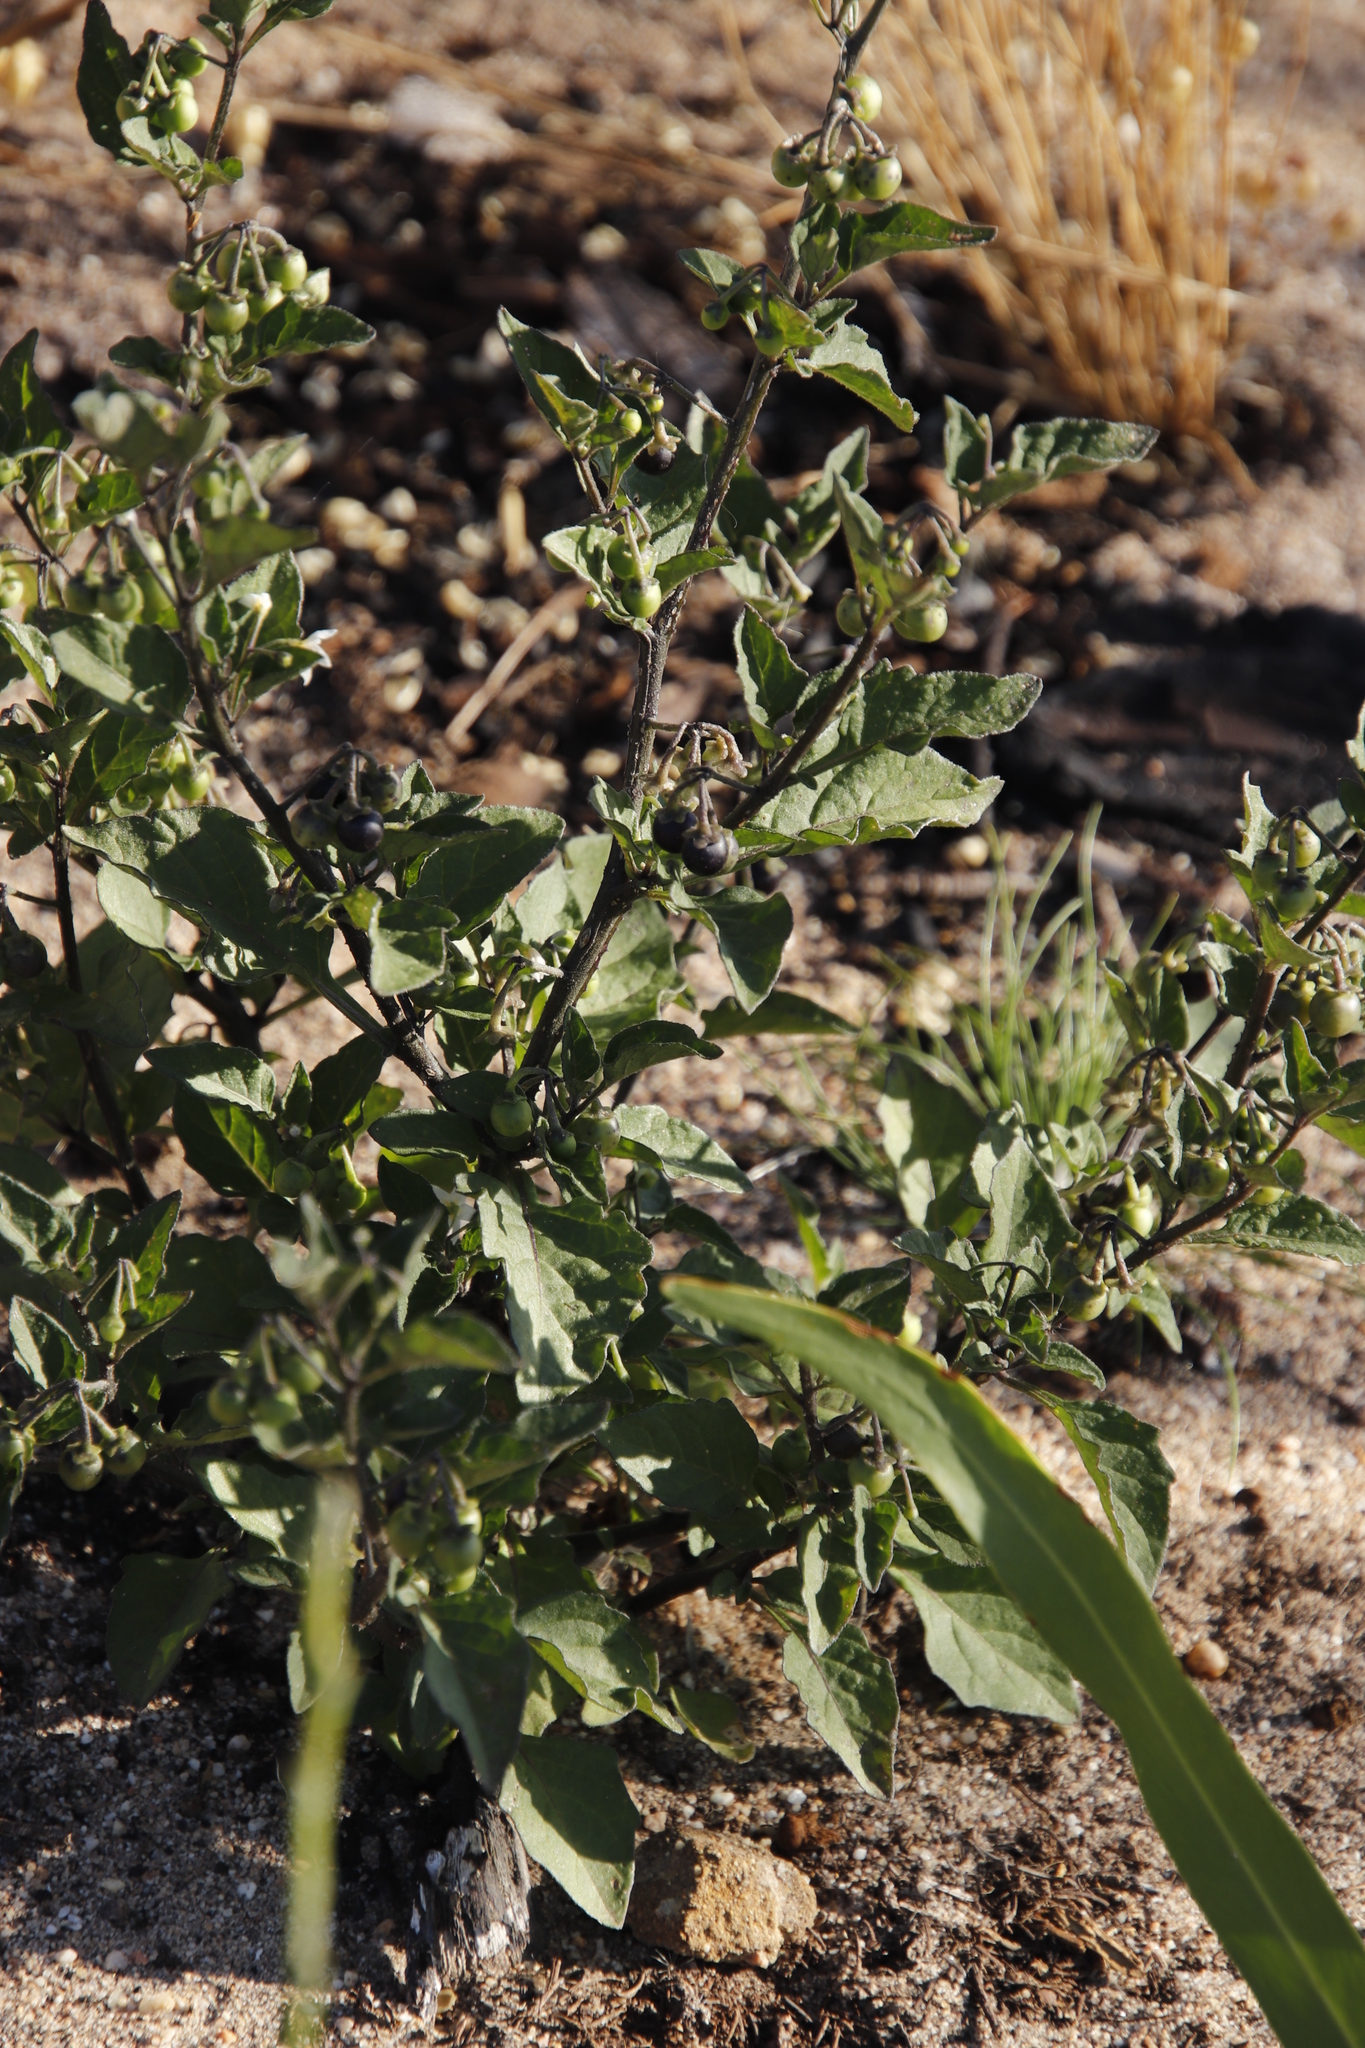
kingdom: Plantae
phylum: Tracheophyta
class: Magnoliopsida
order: Solanales
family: Solanaceae
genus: Solanum
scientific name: Solanum nigrum
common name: Black nightshade
